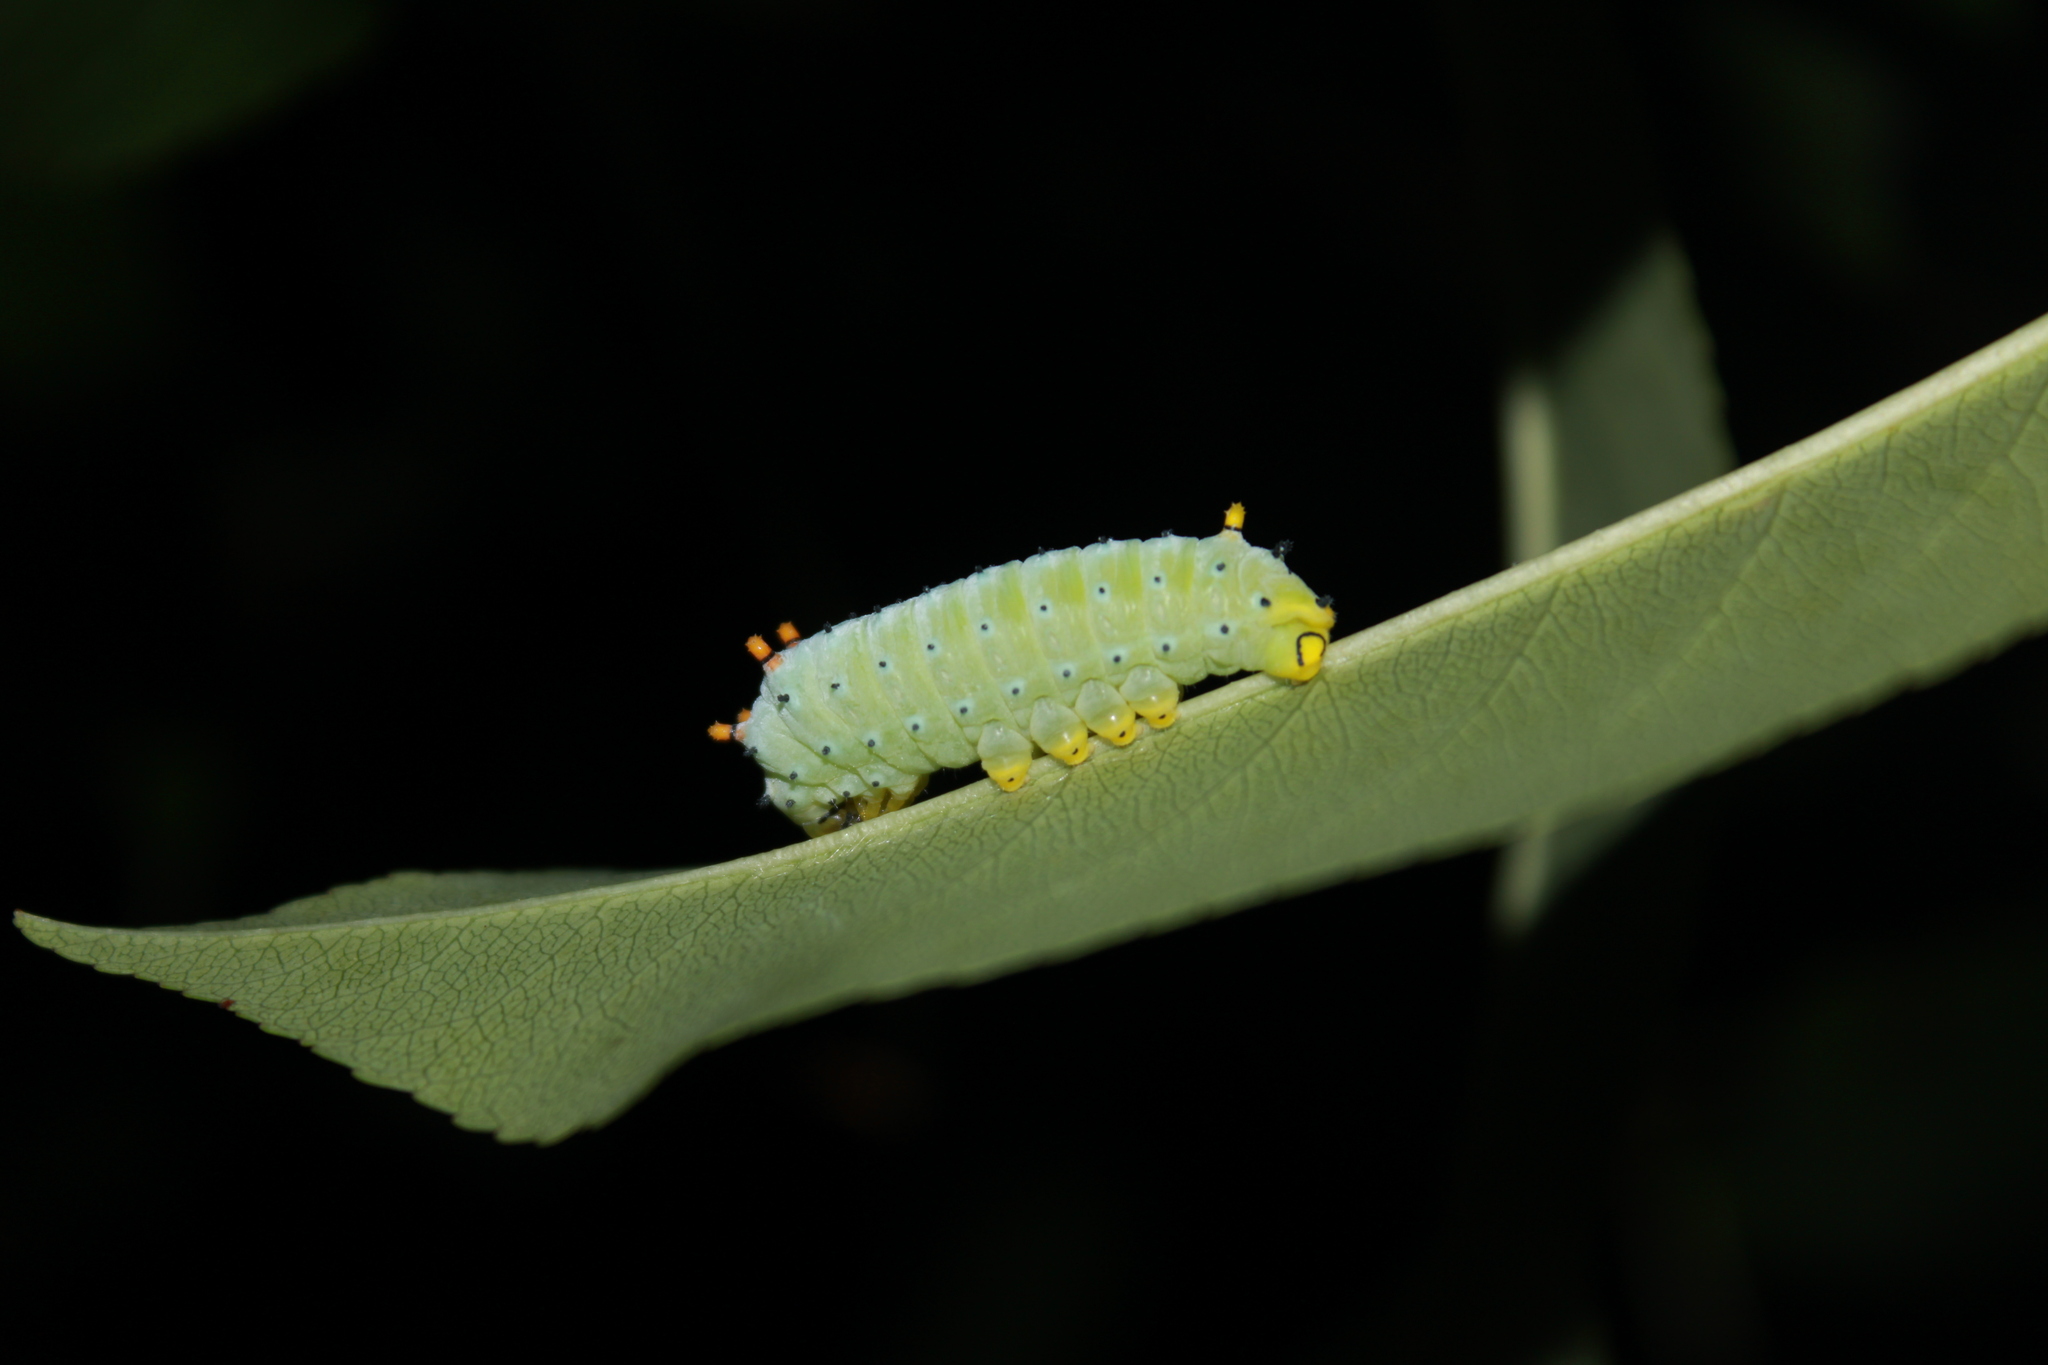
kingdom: Animalia
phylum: Arthropoda
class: Insecta
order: Lepidoptera
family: Saturniidae
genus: Callosamia
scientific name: Callosamia promethea
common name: Promethea silkmoth
